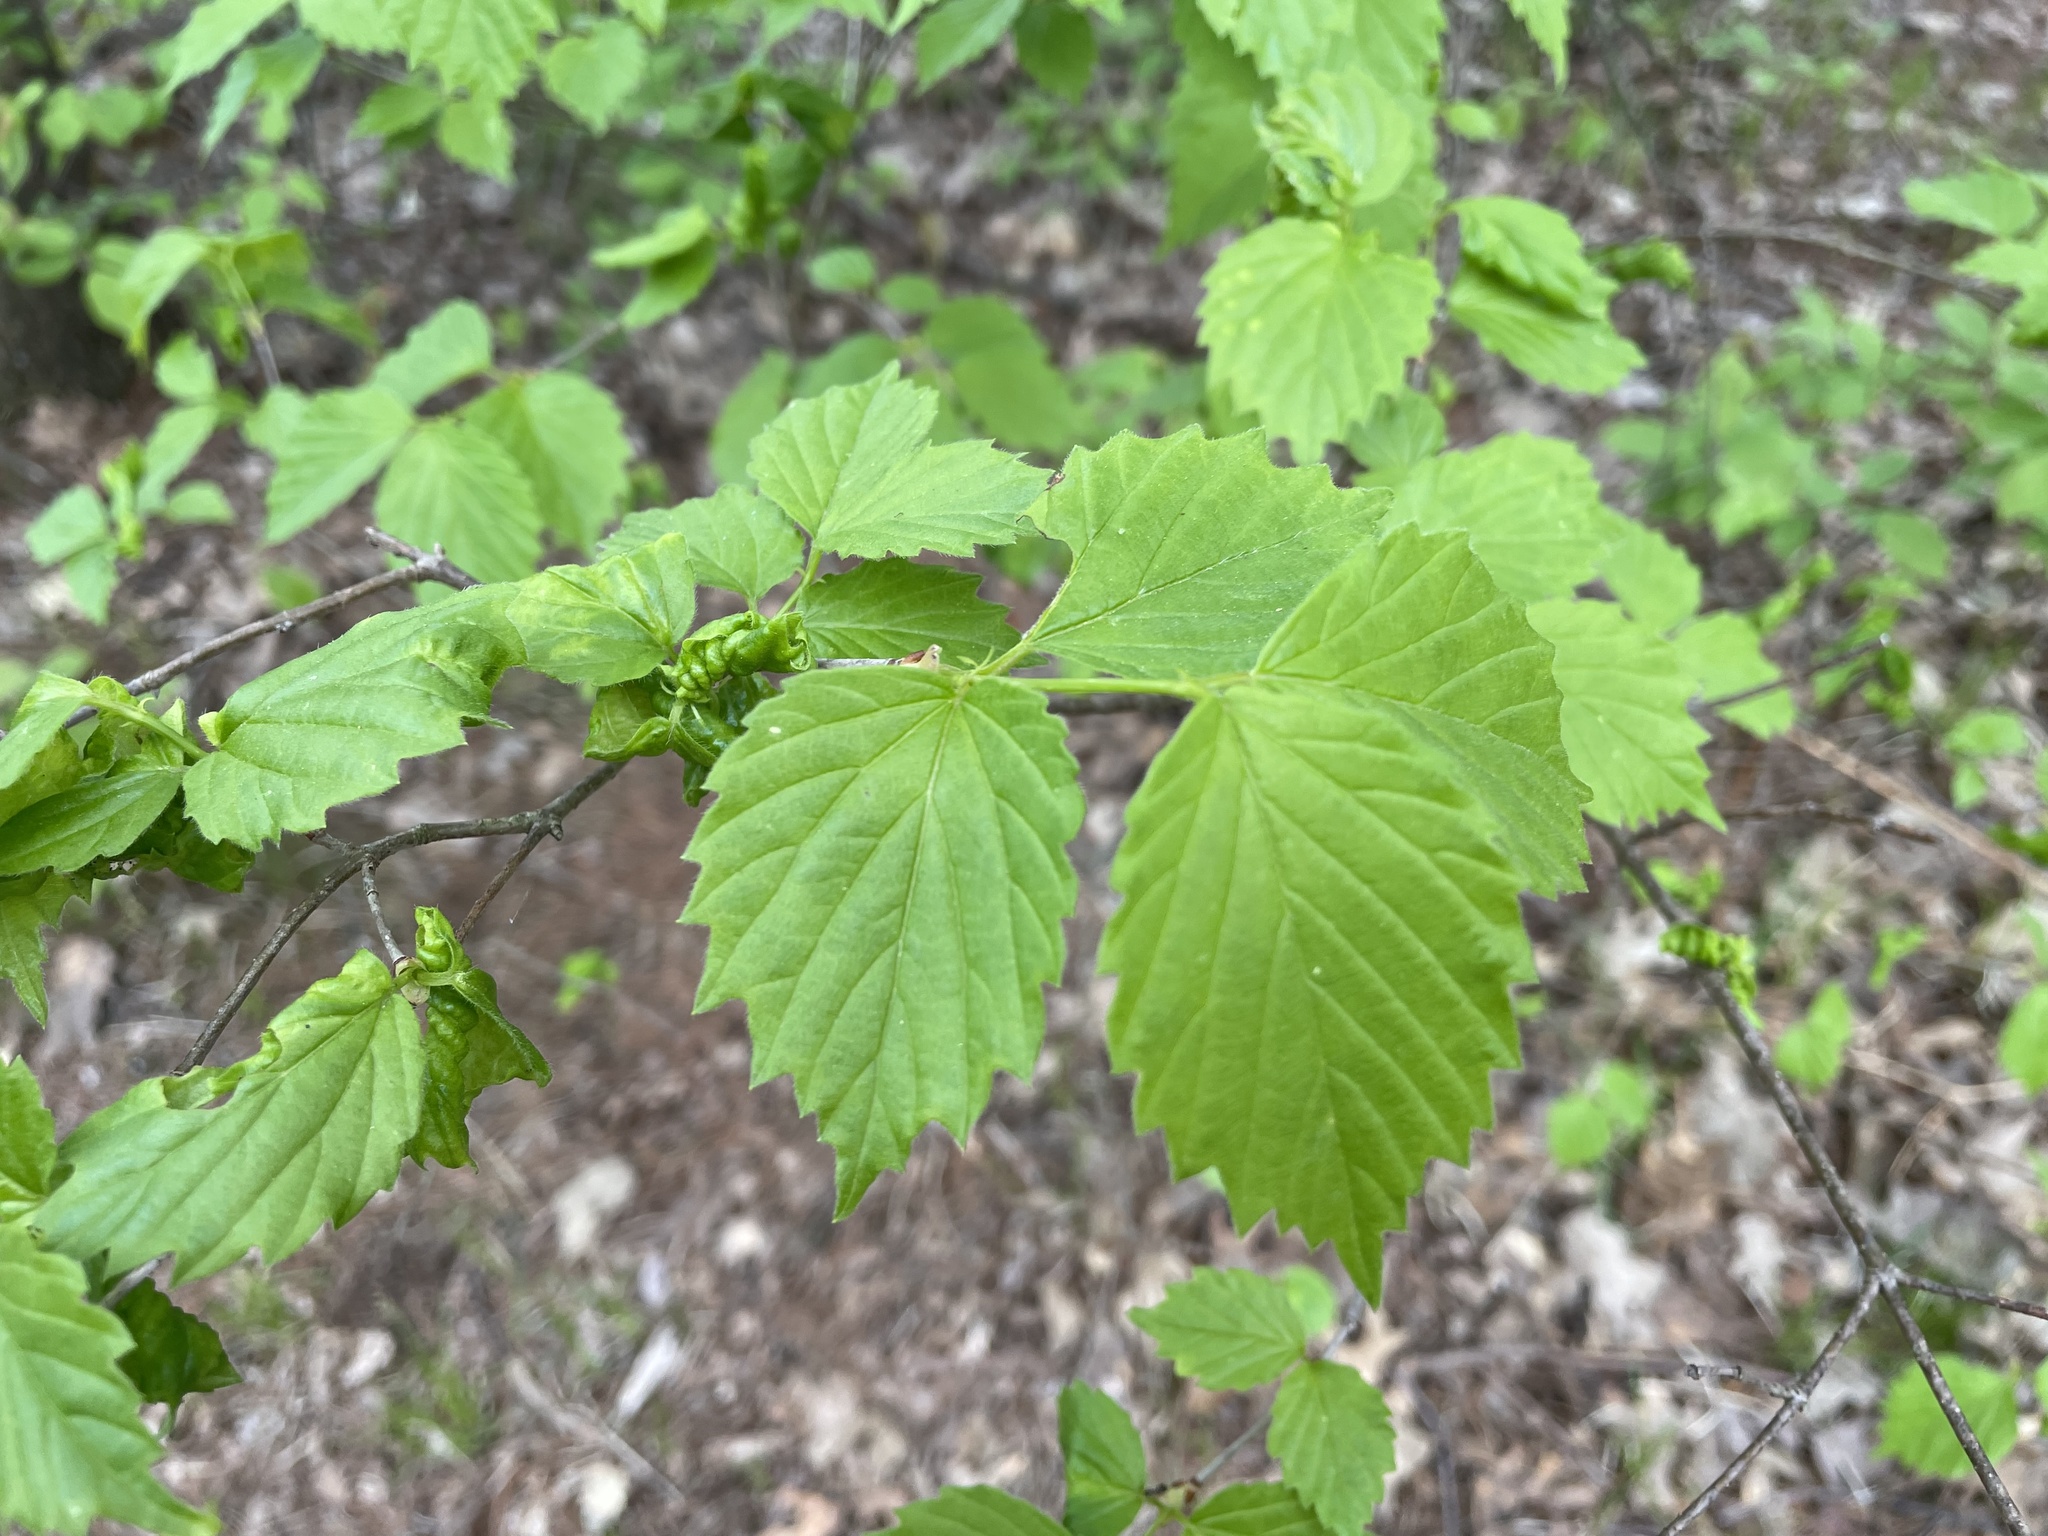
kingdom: Plantae
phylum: Tracheophyta
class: Magnoliopsida
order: Dipsacales
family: Viburnaceae
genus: Viburnum
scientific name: Viburnum rafinesqueanum
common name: Downy arrow-wood
